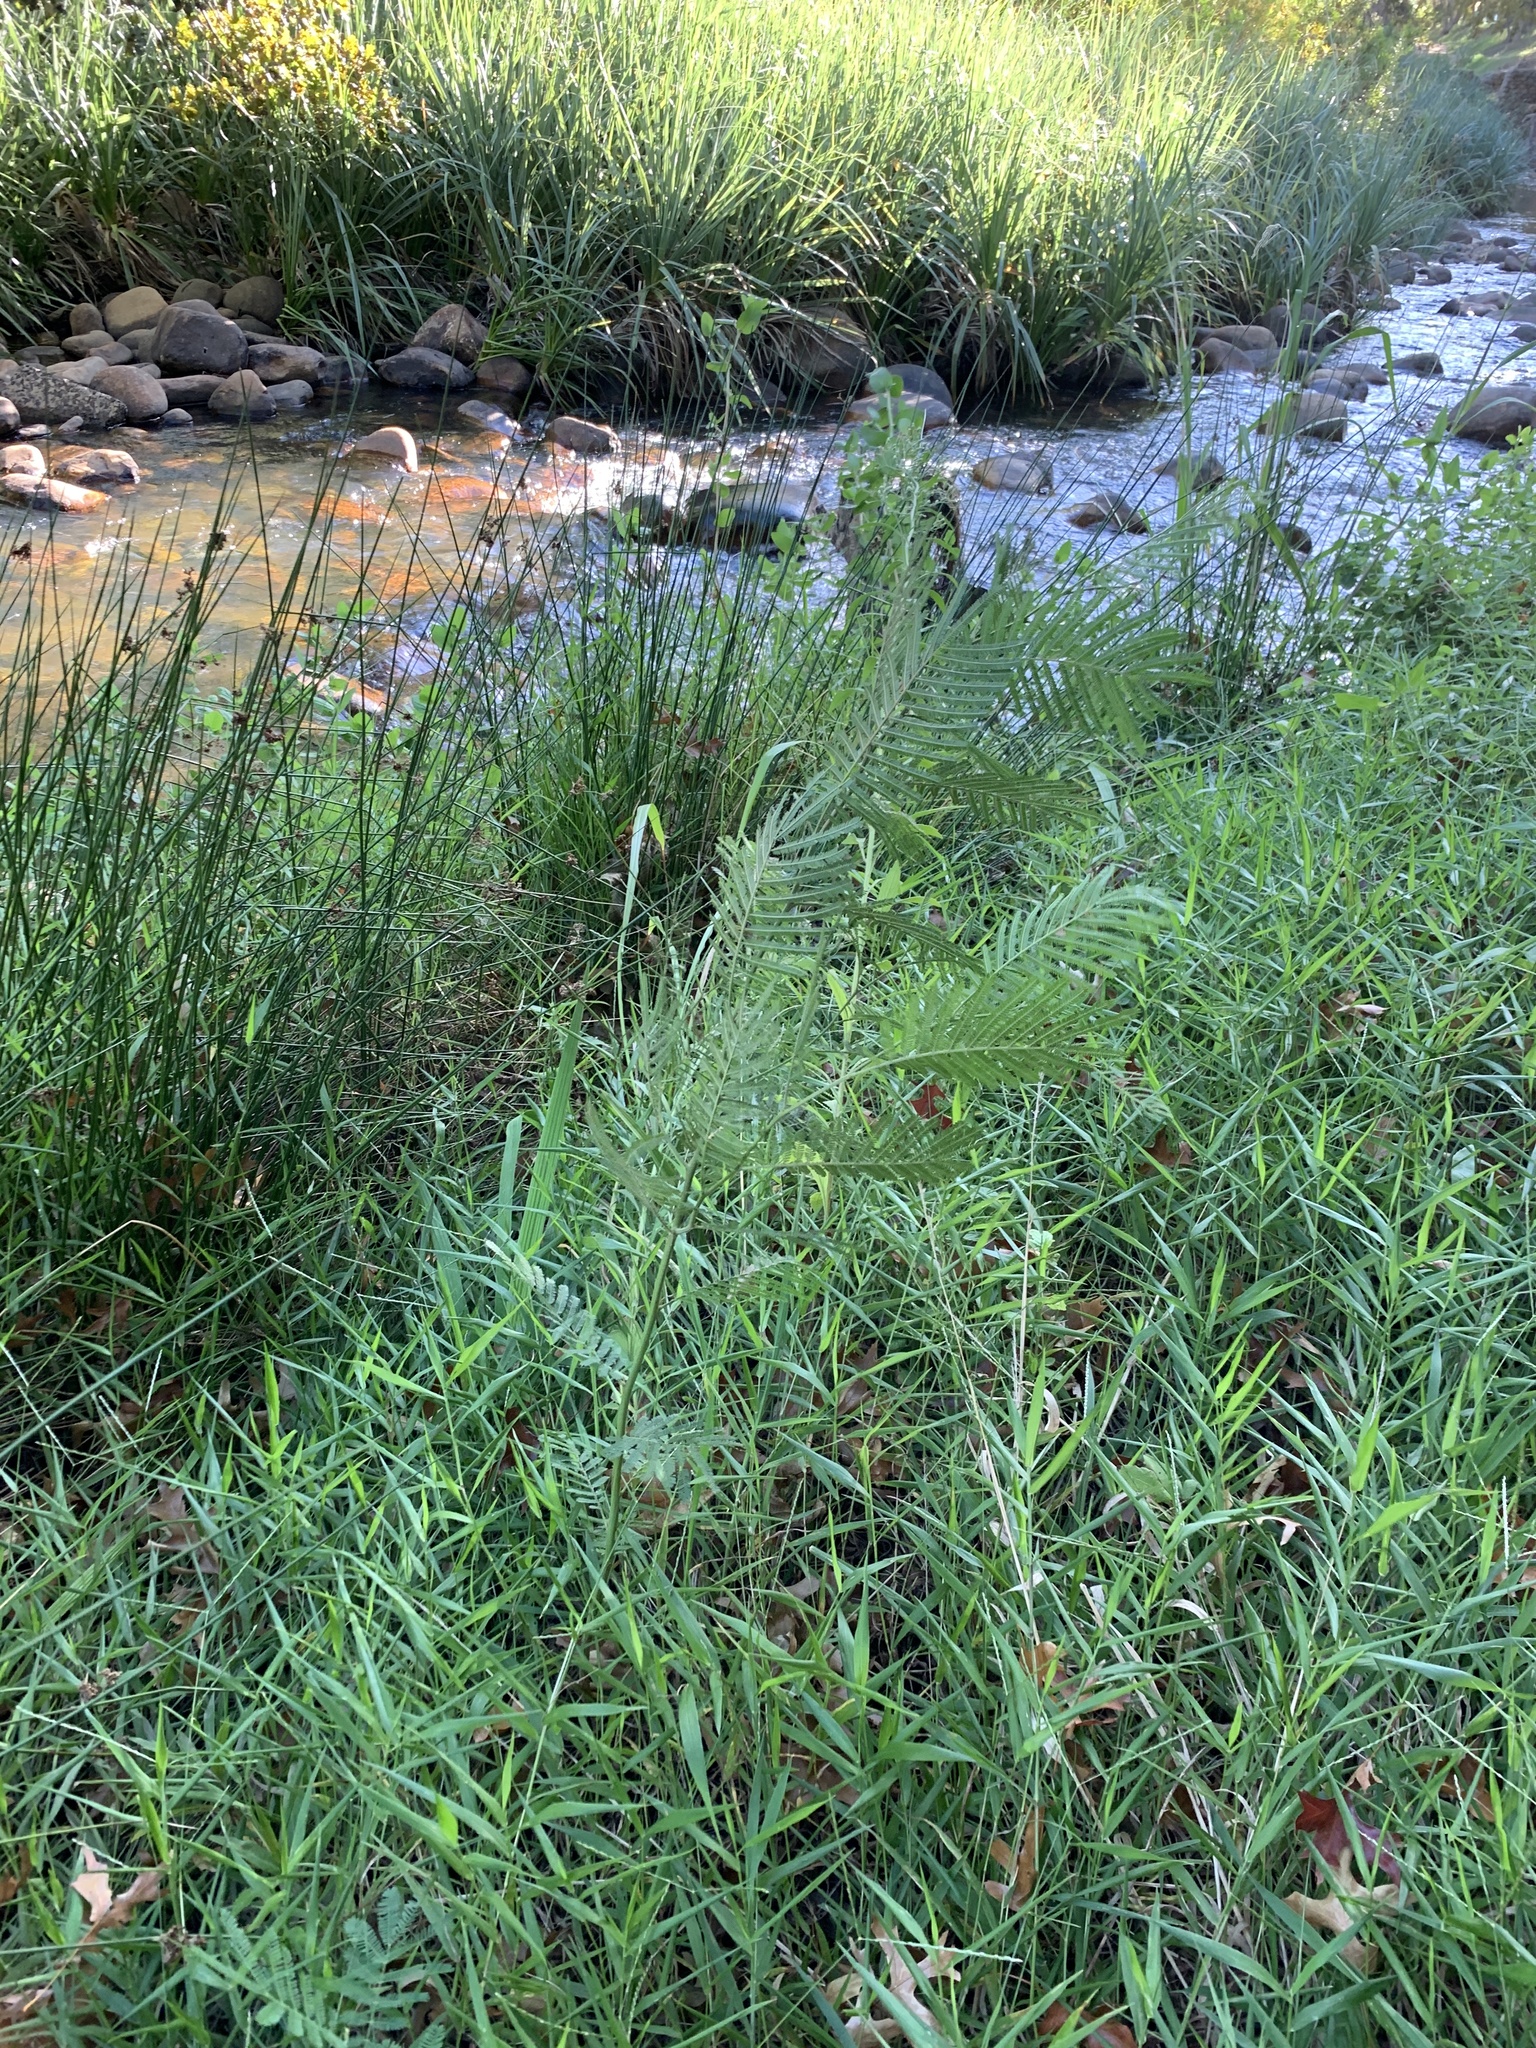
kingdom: Plantae
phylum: Tracheophyta
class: Magnoliopsida
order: Fabales
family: Fabaceae
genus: Acacia
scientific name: Acacia mearnsii
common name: Black wattle
